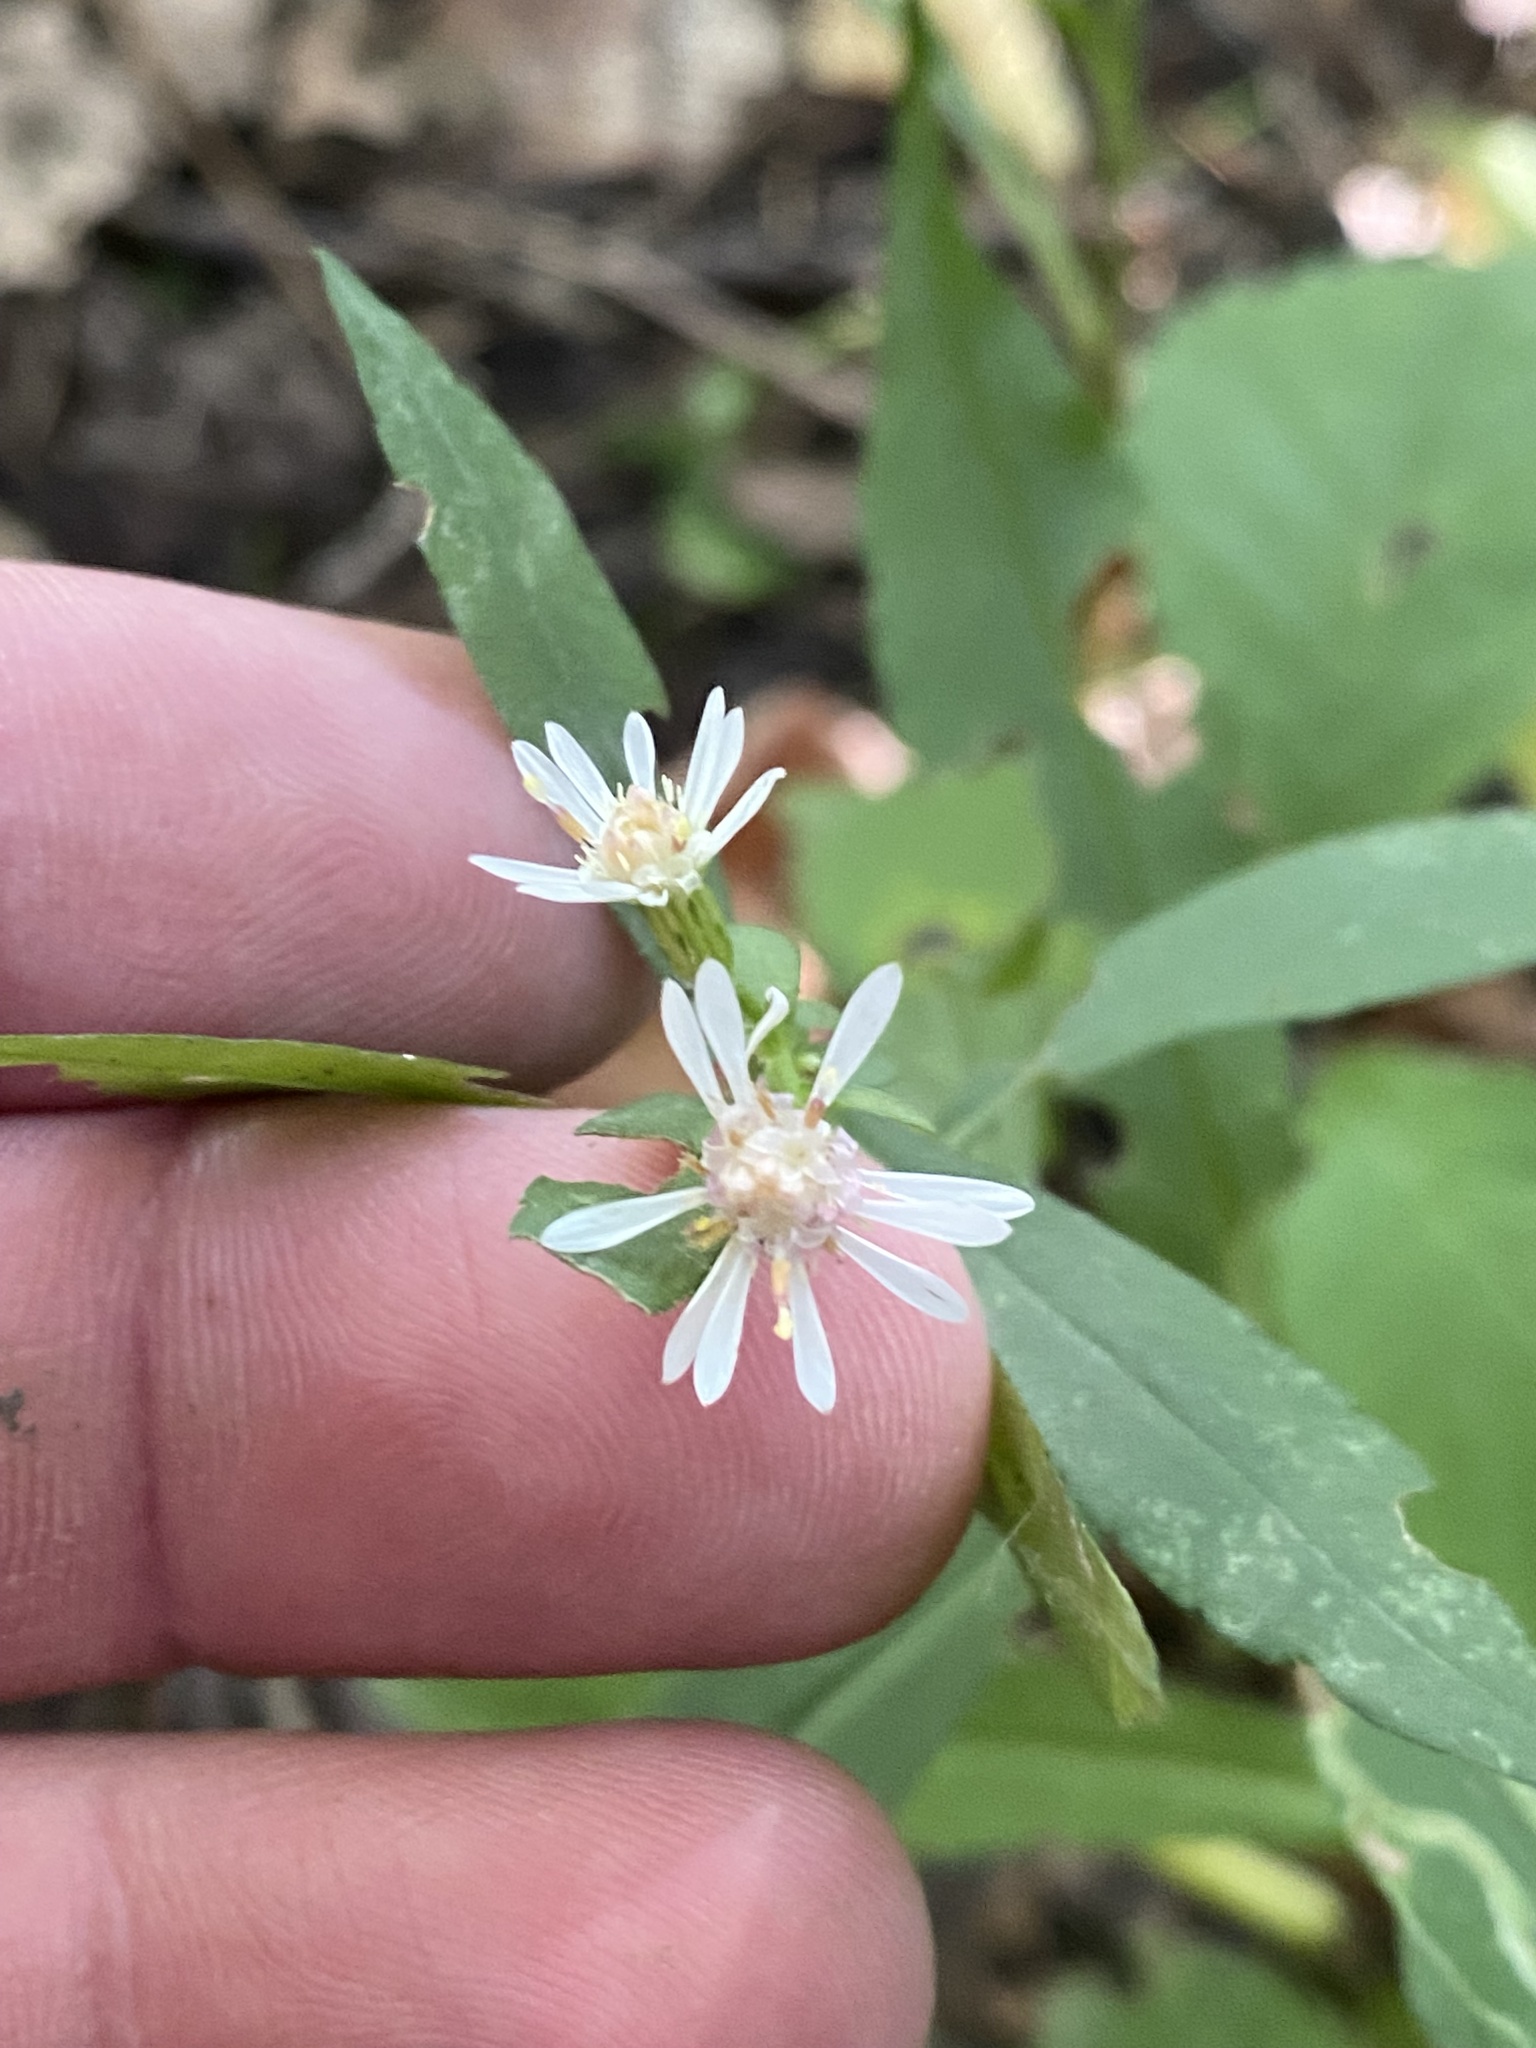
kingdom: Plantae
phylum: Tracheophyta
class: Magnoliopsida
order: Asterales
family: Asteraceae
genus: Symphyotrichum
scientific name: Symphyotrichum lateriflorum
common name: Calico aster
